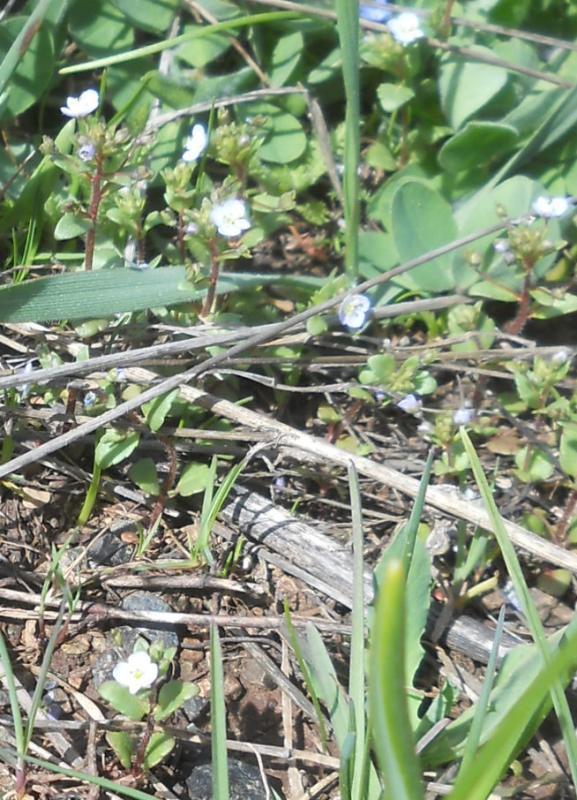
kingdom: Plantae
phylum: Tracheophyta
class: Magnoliopsida
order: Lamiales
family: Plantaginaceae
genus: Veronica
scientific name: Veronica pusilla
